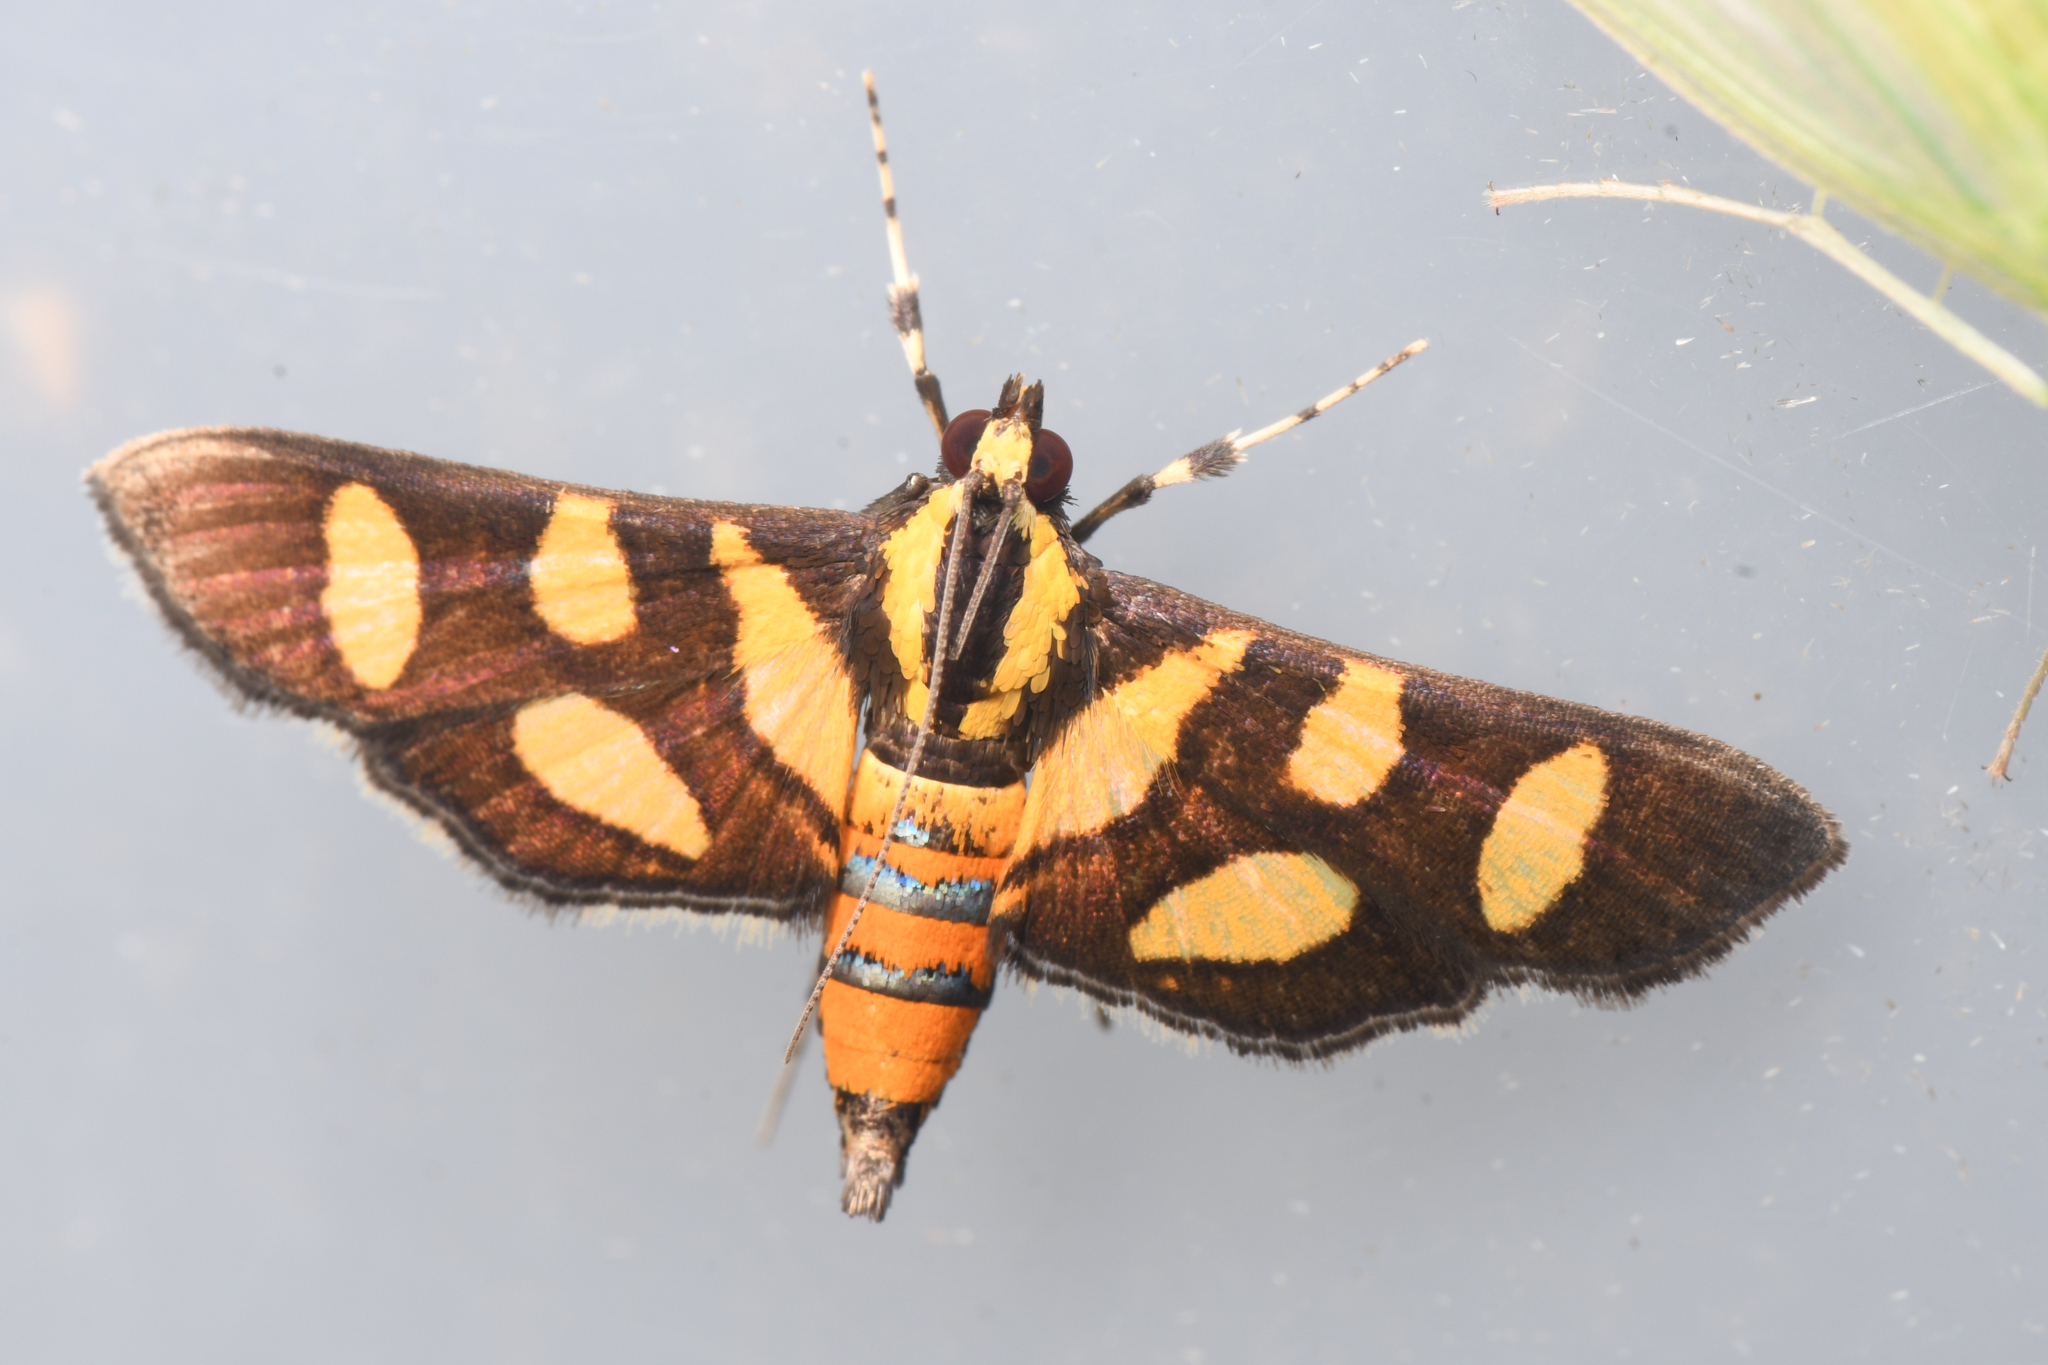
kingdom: Animalia
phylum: Arthropoda
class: Insecta
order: Lepidoptera
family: Crambidae
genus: Syngamia
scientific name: Syngamia florella
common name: Orange-spotted flower moth
